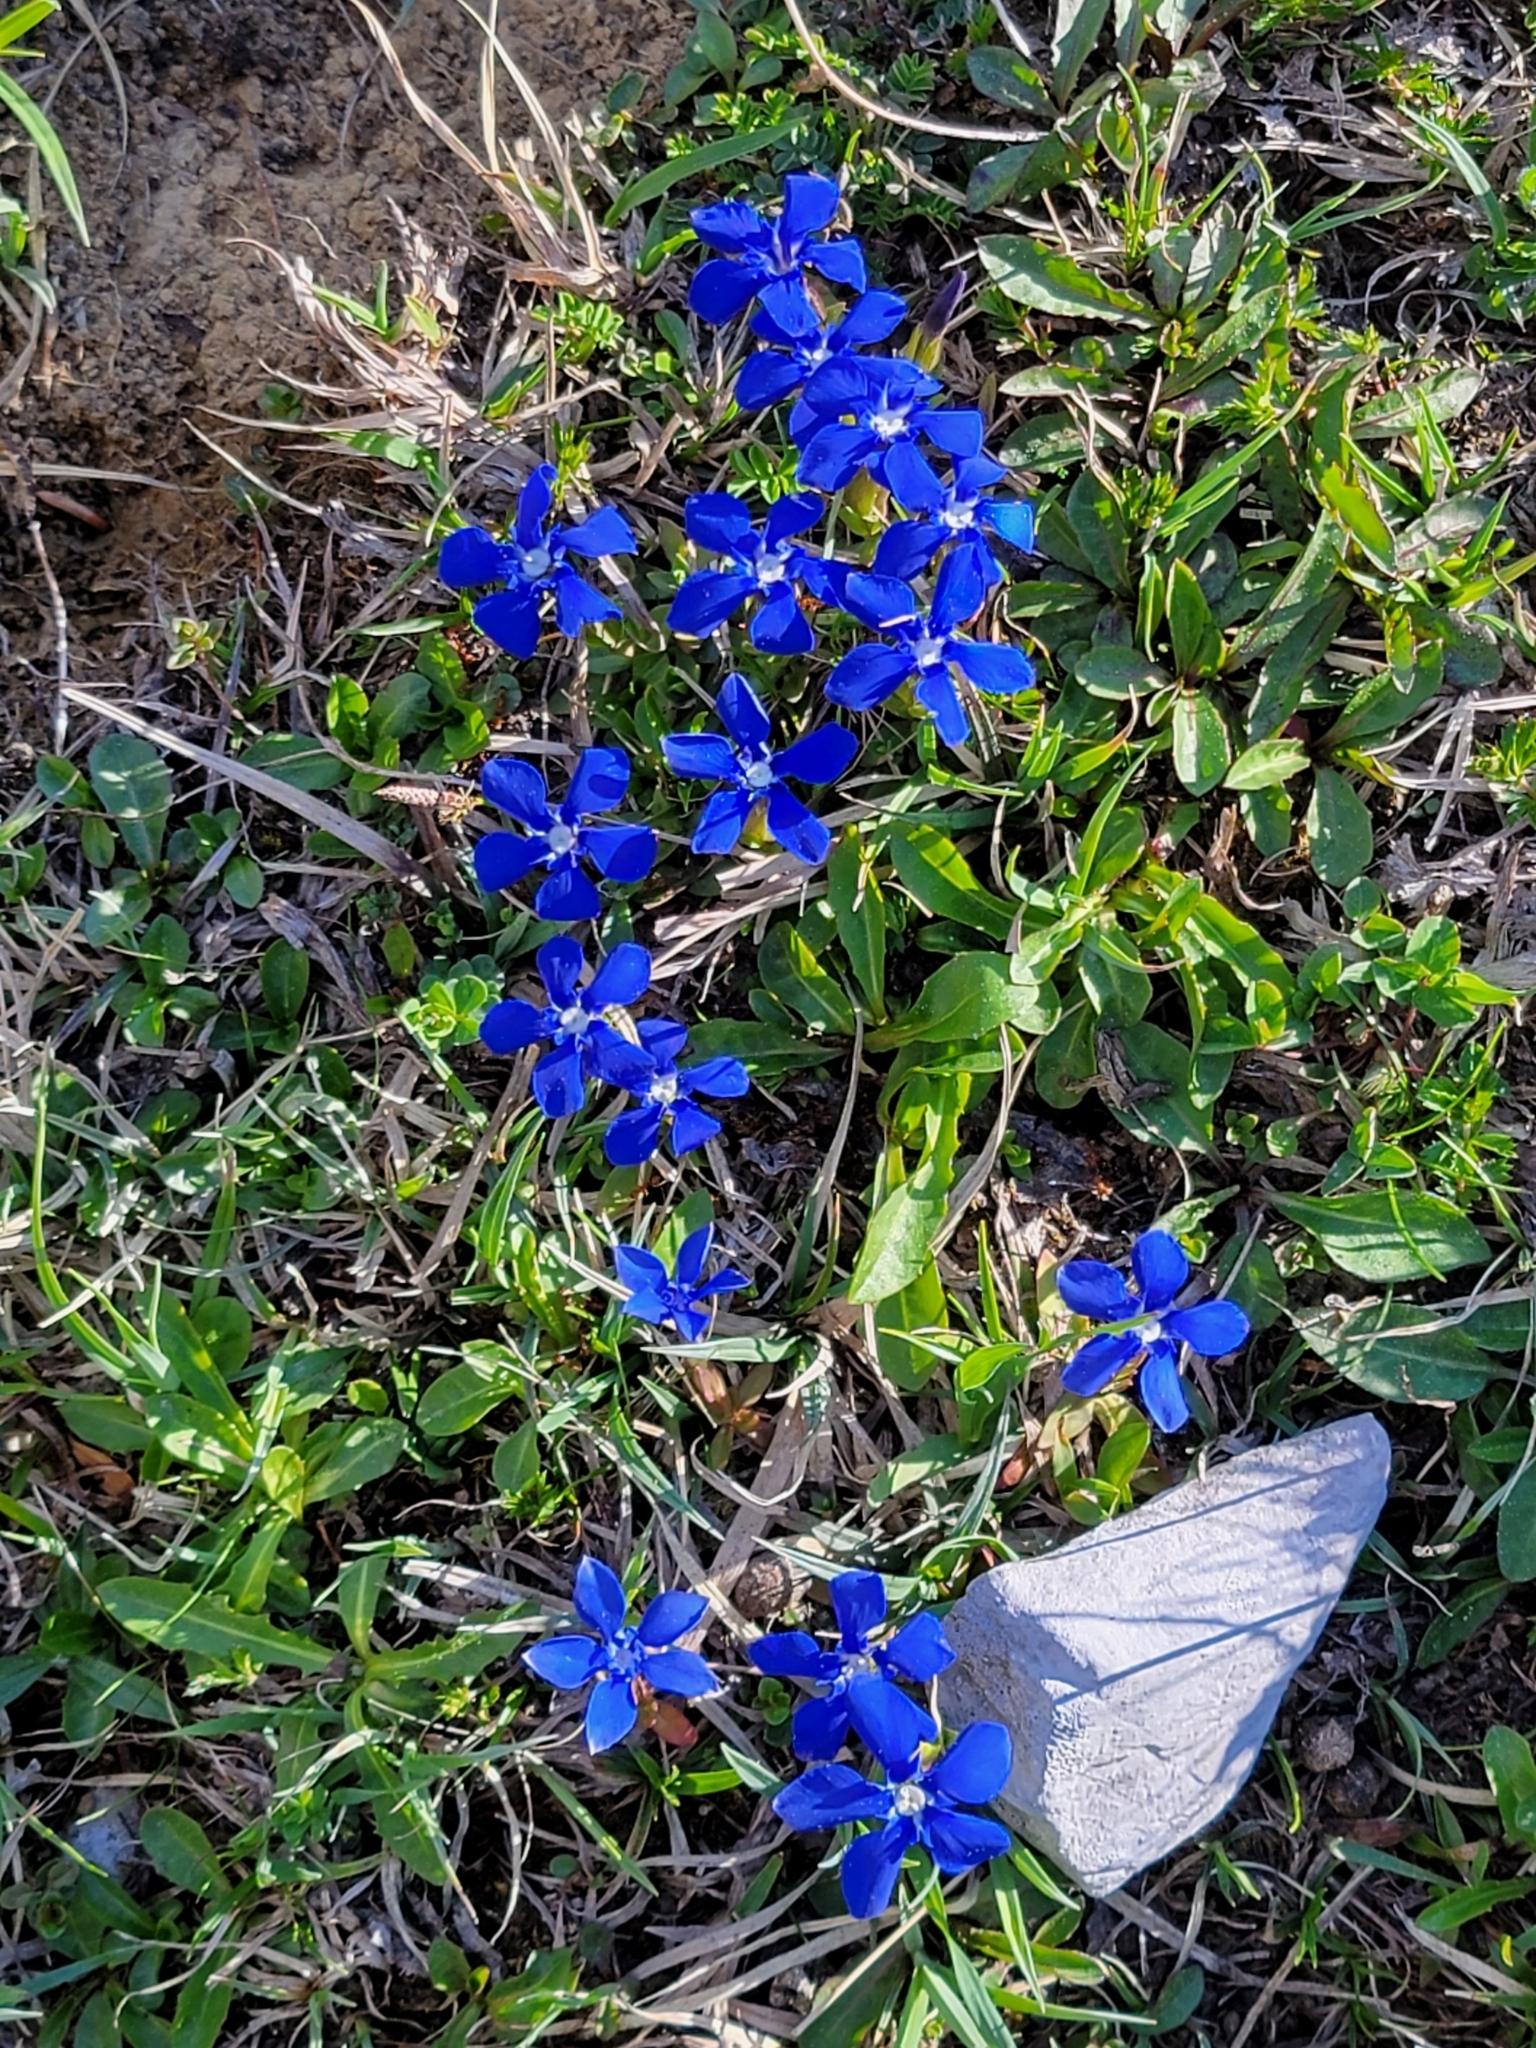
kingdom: Plantae
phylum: Tracheophyta
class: Magnoliopsida
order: Gentianales
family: Gentianaceae
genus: Gentiana
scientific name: Gentiana verna
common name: Spring gentian
